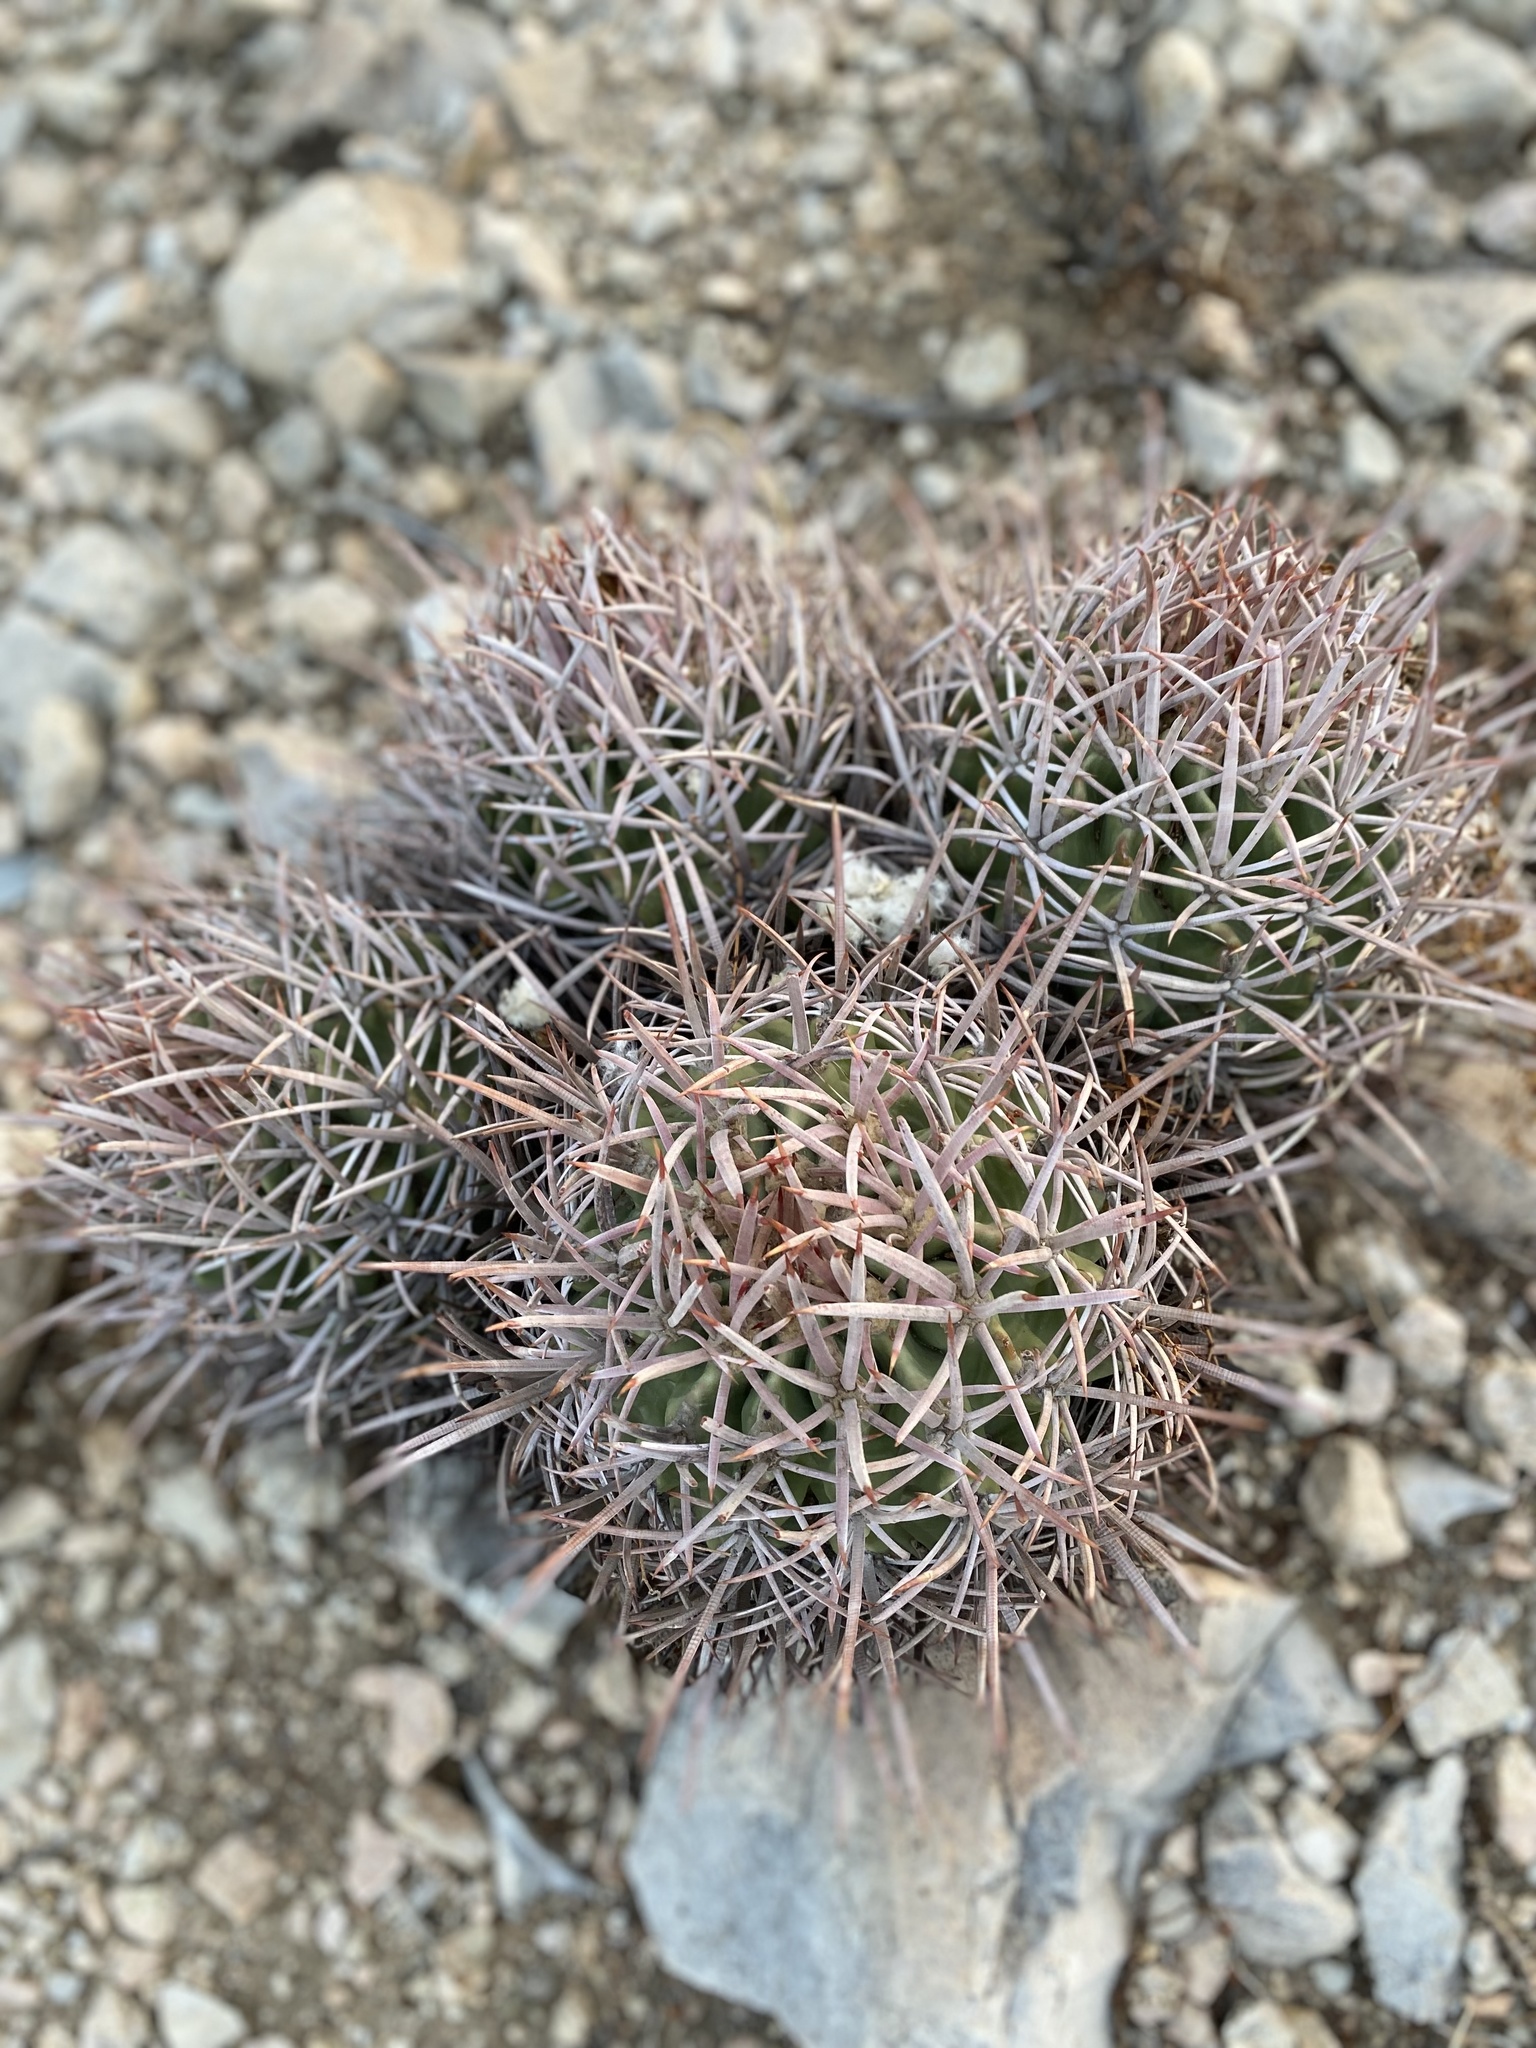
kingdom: Plantae
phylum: Tracheophyta
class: Magnoliopsida
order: Caryophyllales
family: Cactaceae
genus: Echinocactus
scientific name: Echinocactus polycephalus
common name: Cottontop cactus
